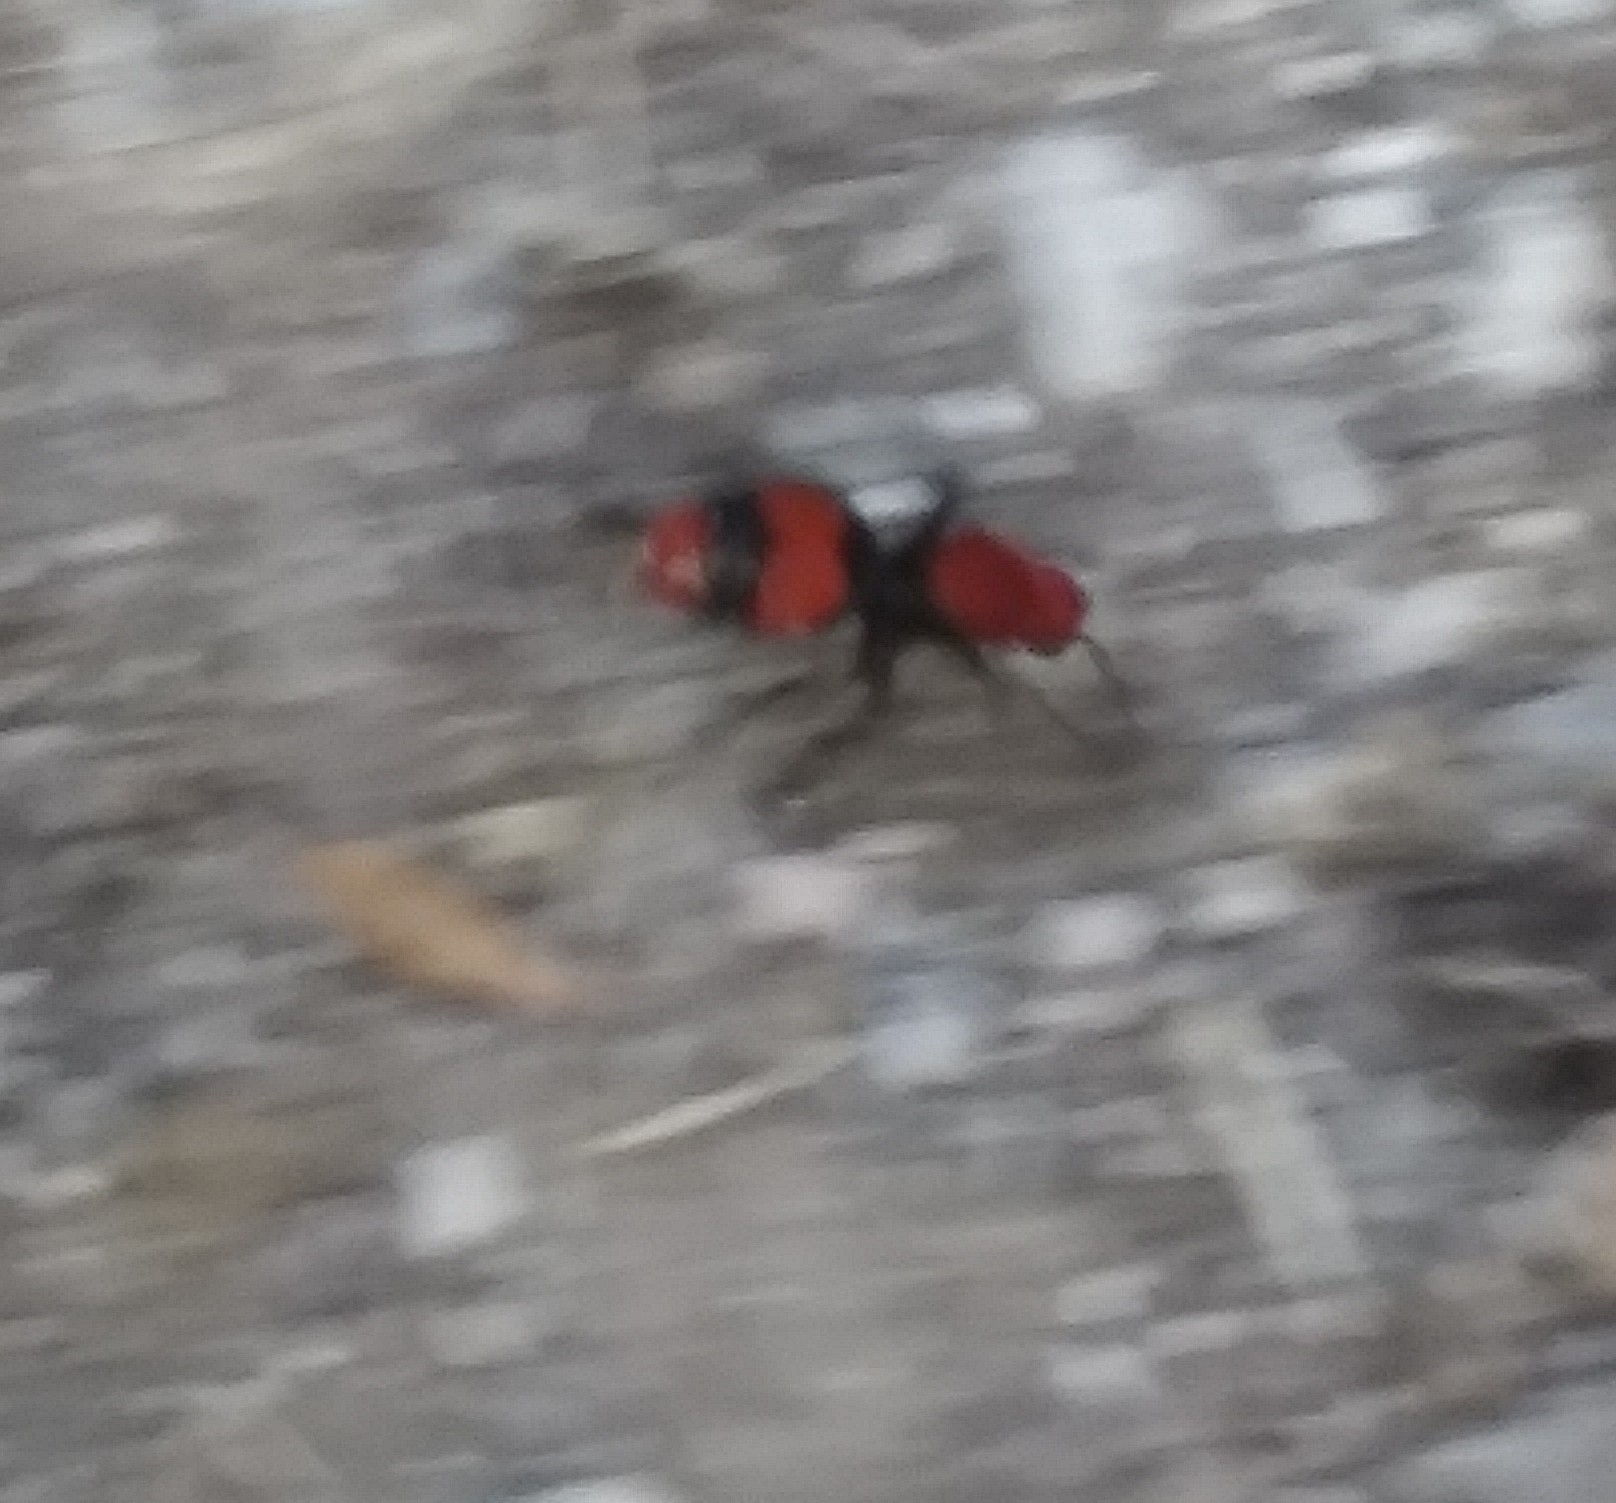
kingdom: Animalia
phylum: Arthropoda
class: Insecta
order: Hymenoptera
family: Mutillidae
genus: Dasymutilla
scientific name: Dasymutilla occidentalis
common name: Common eastern velvet ant
